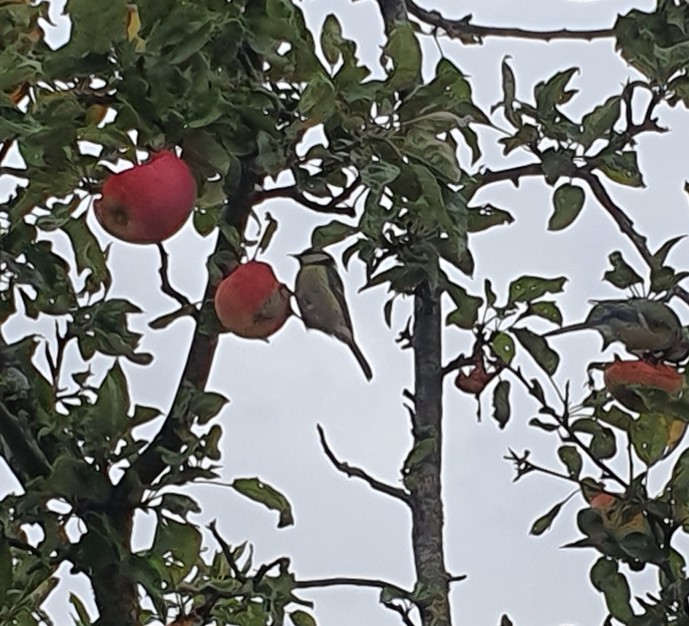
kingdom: Animalia
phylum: Chordata
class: Aves
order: Passeriformes
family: Paridae
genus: Cyanistes
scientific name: Cyanistes caeruleus
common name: Eurasian blue tit
